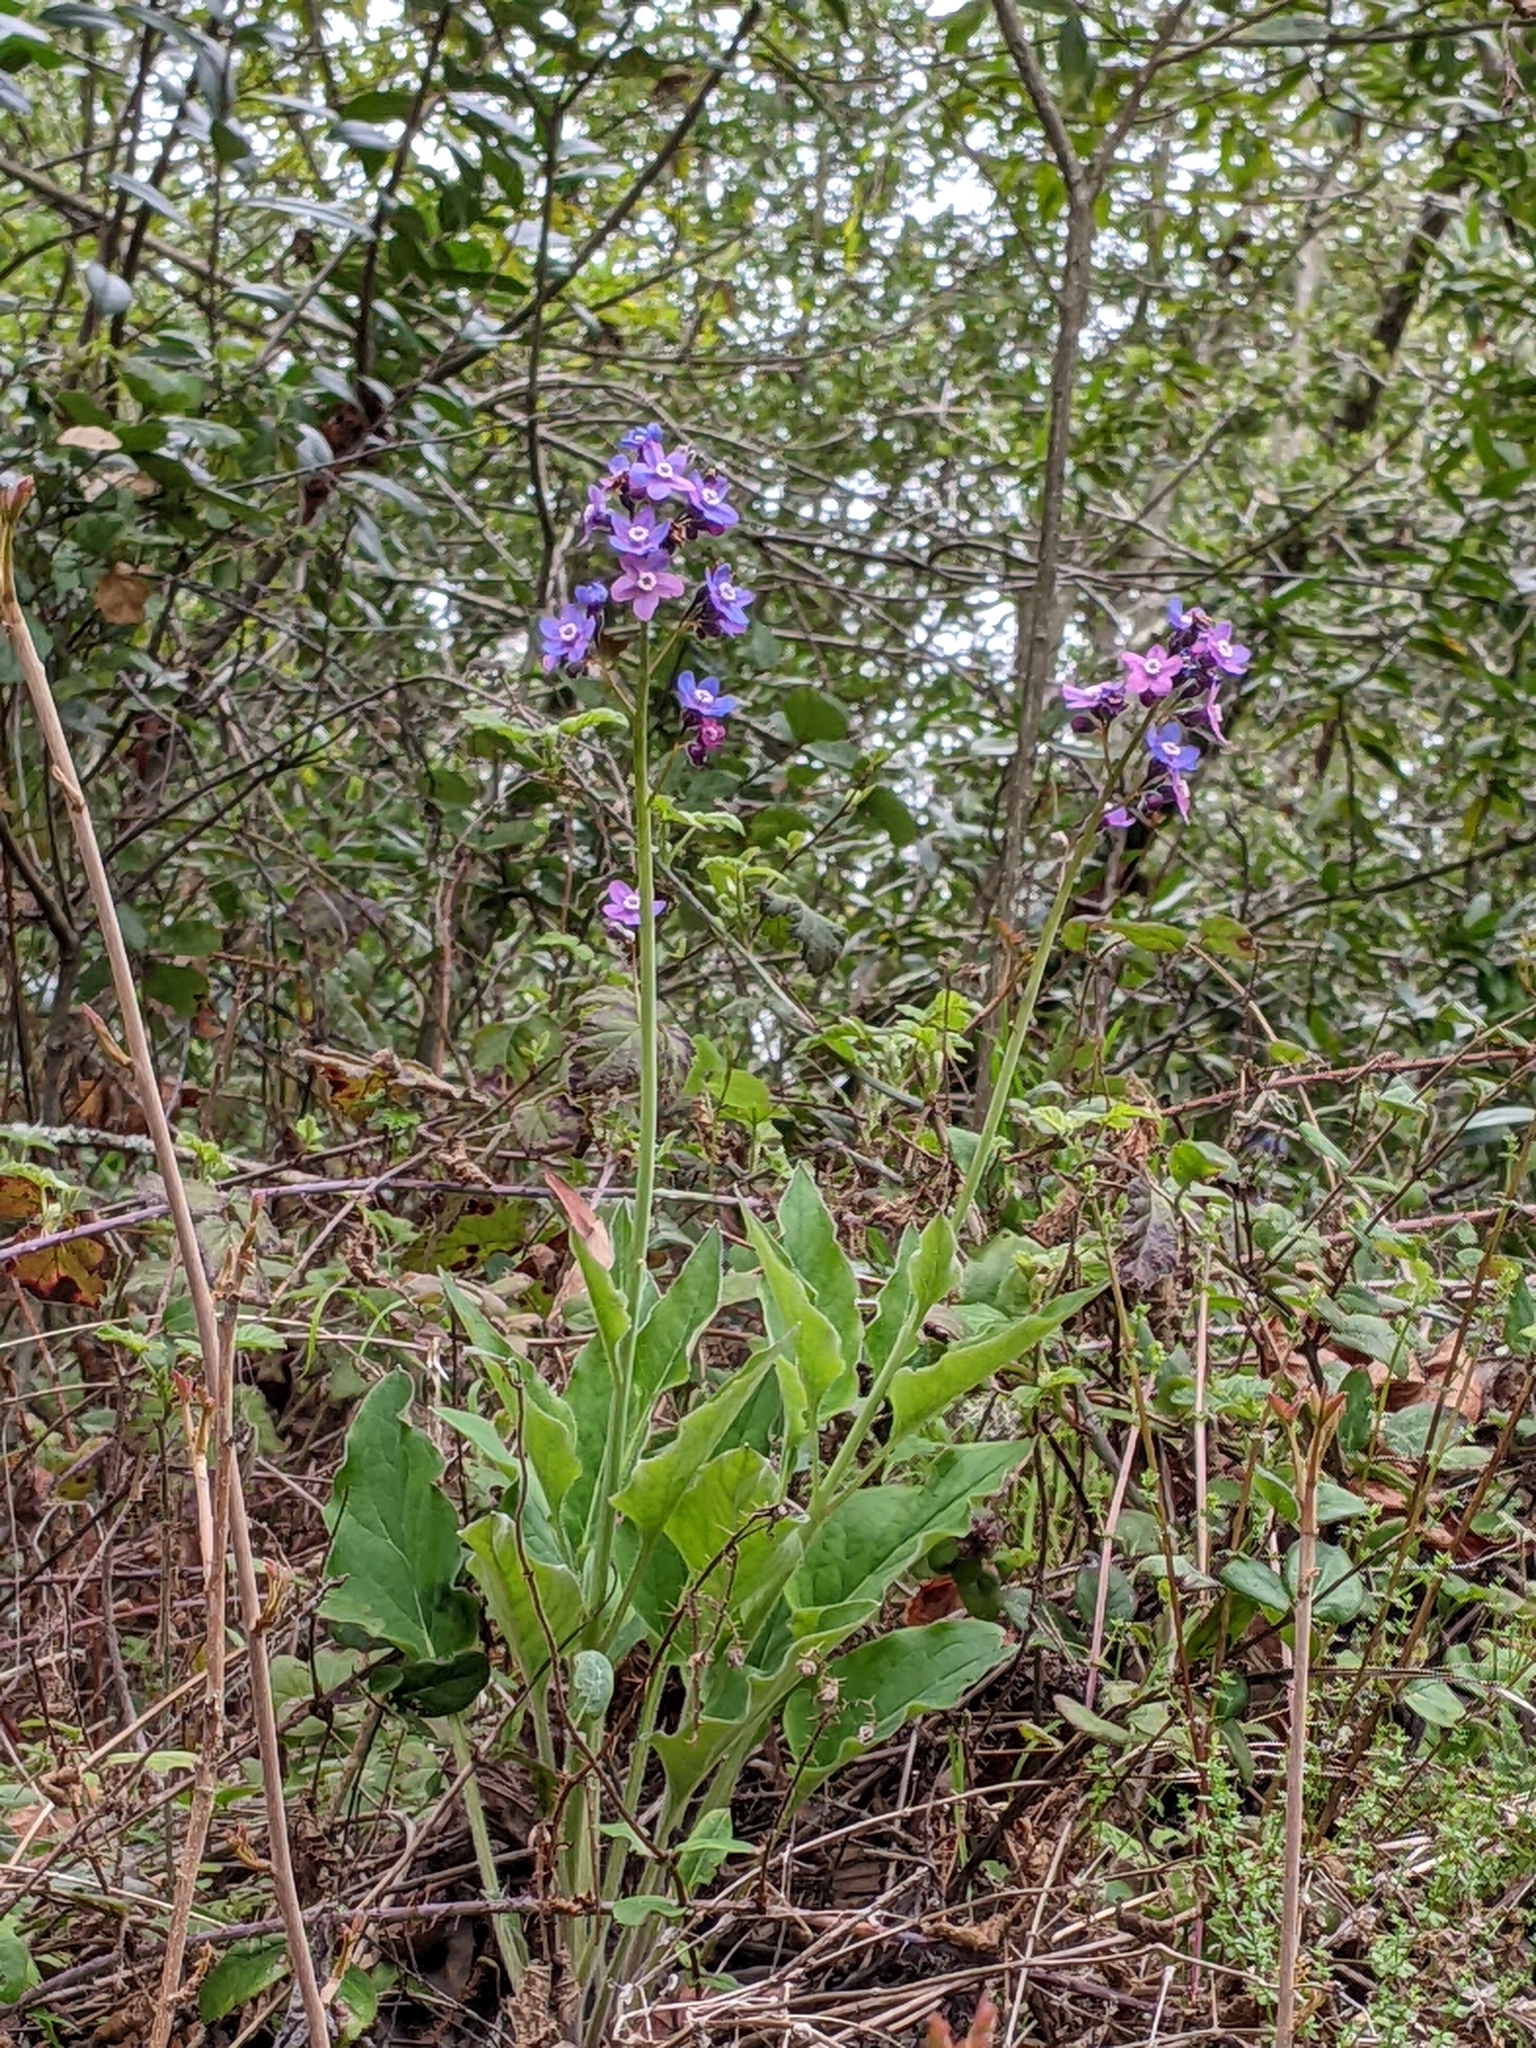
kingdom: Plantae
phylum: Tracheophyta
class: Magnoliopsida
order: Boraginales
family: Boraginaceae
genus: Adelinia
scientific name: Adelinia grande
